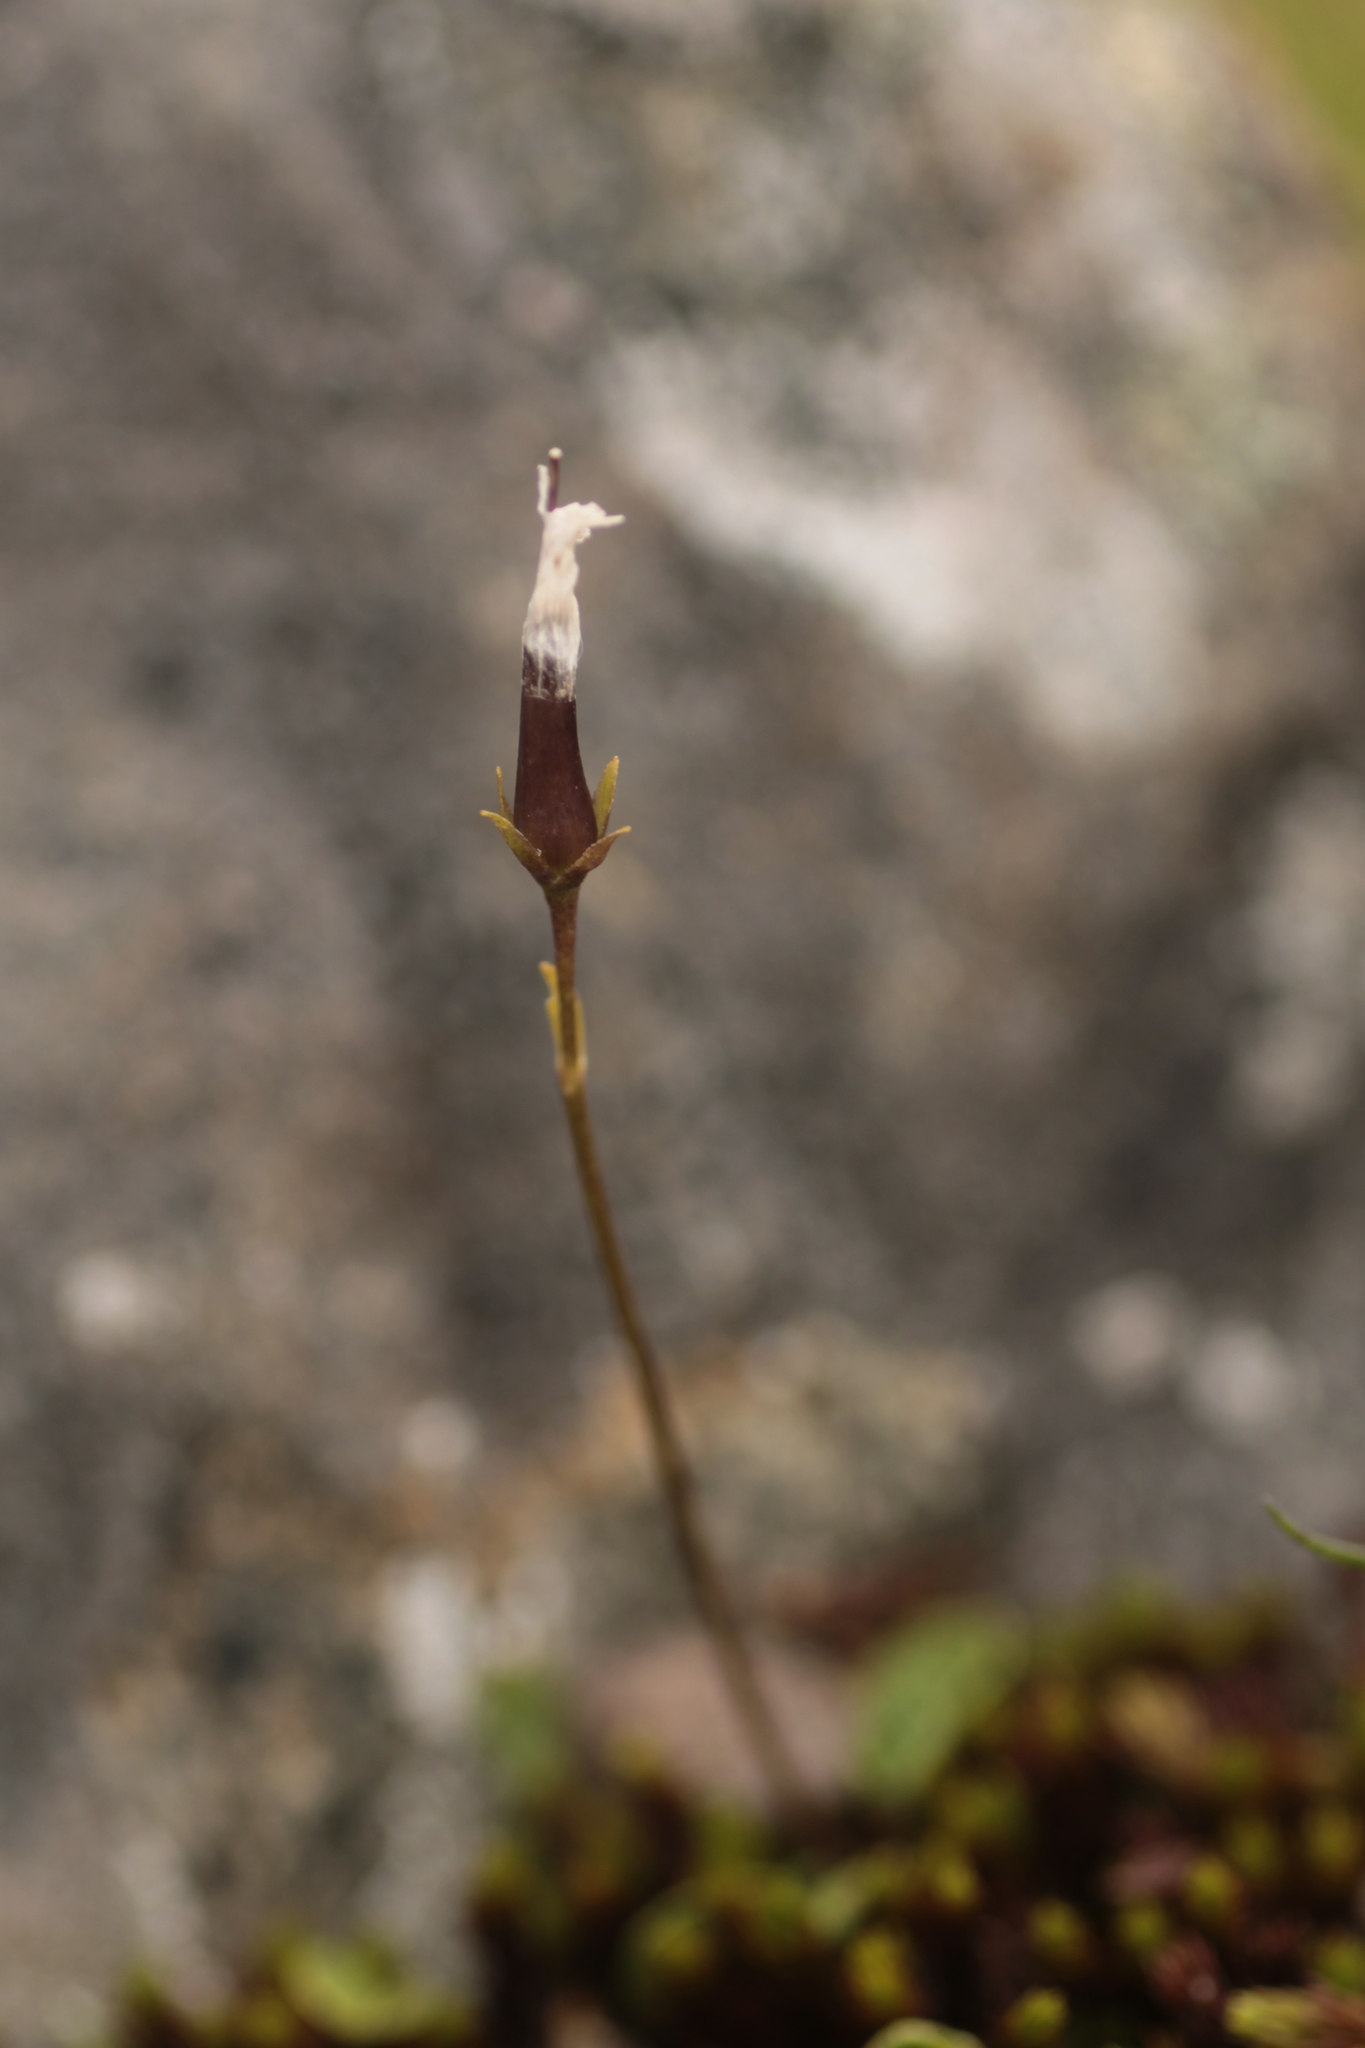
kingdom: Plantae
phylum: Tracheophyta
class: Magnoliopsida
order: Ericales
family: Primulaceae
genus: Soldanella
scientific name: Soldanella alpicola
